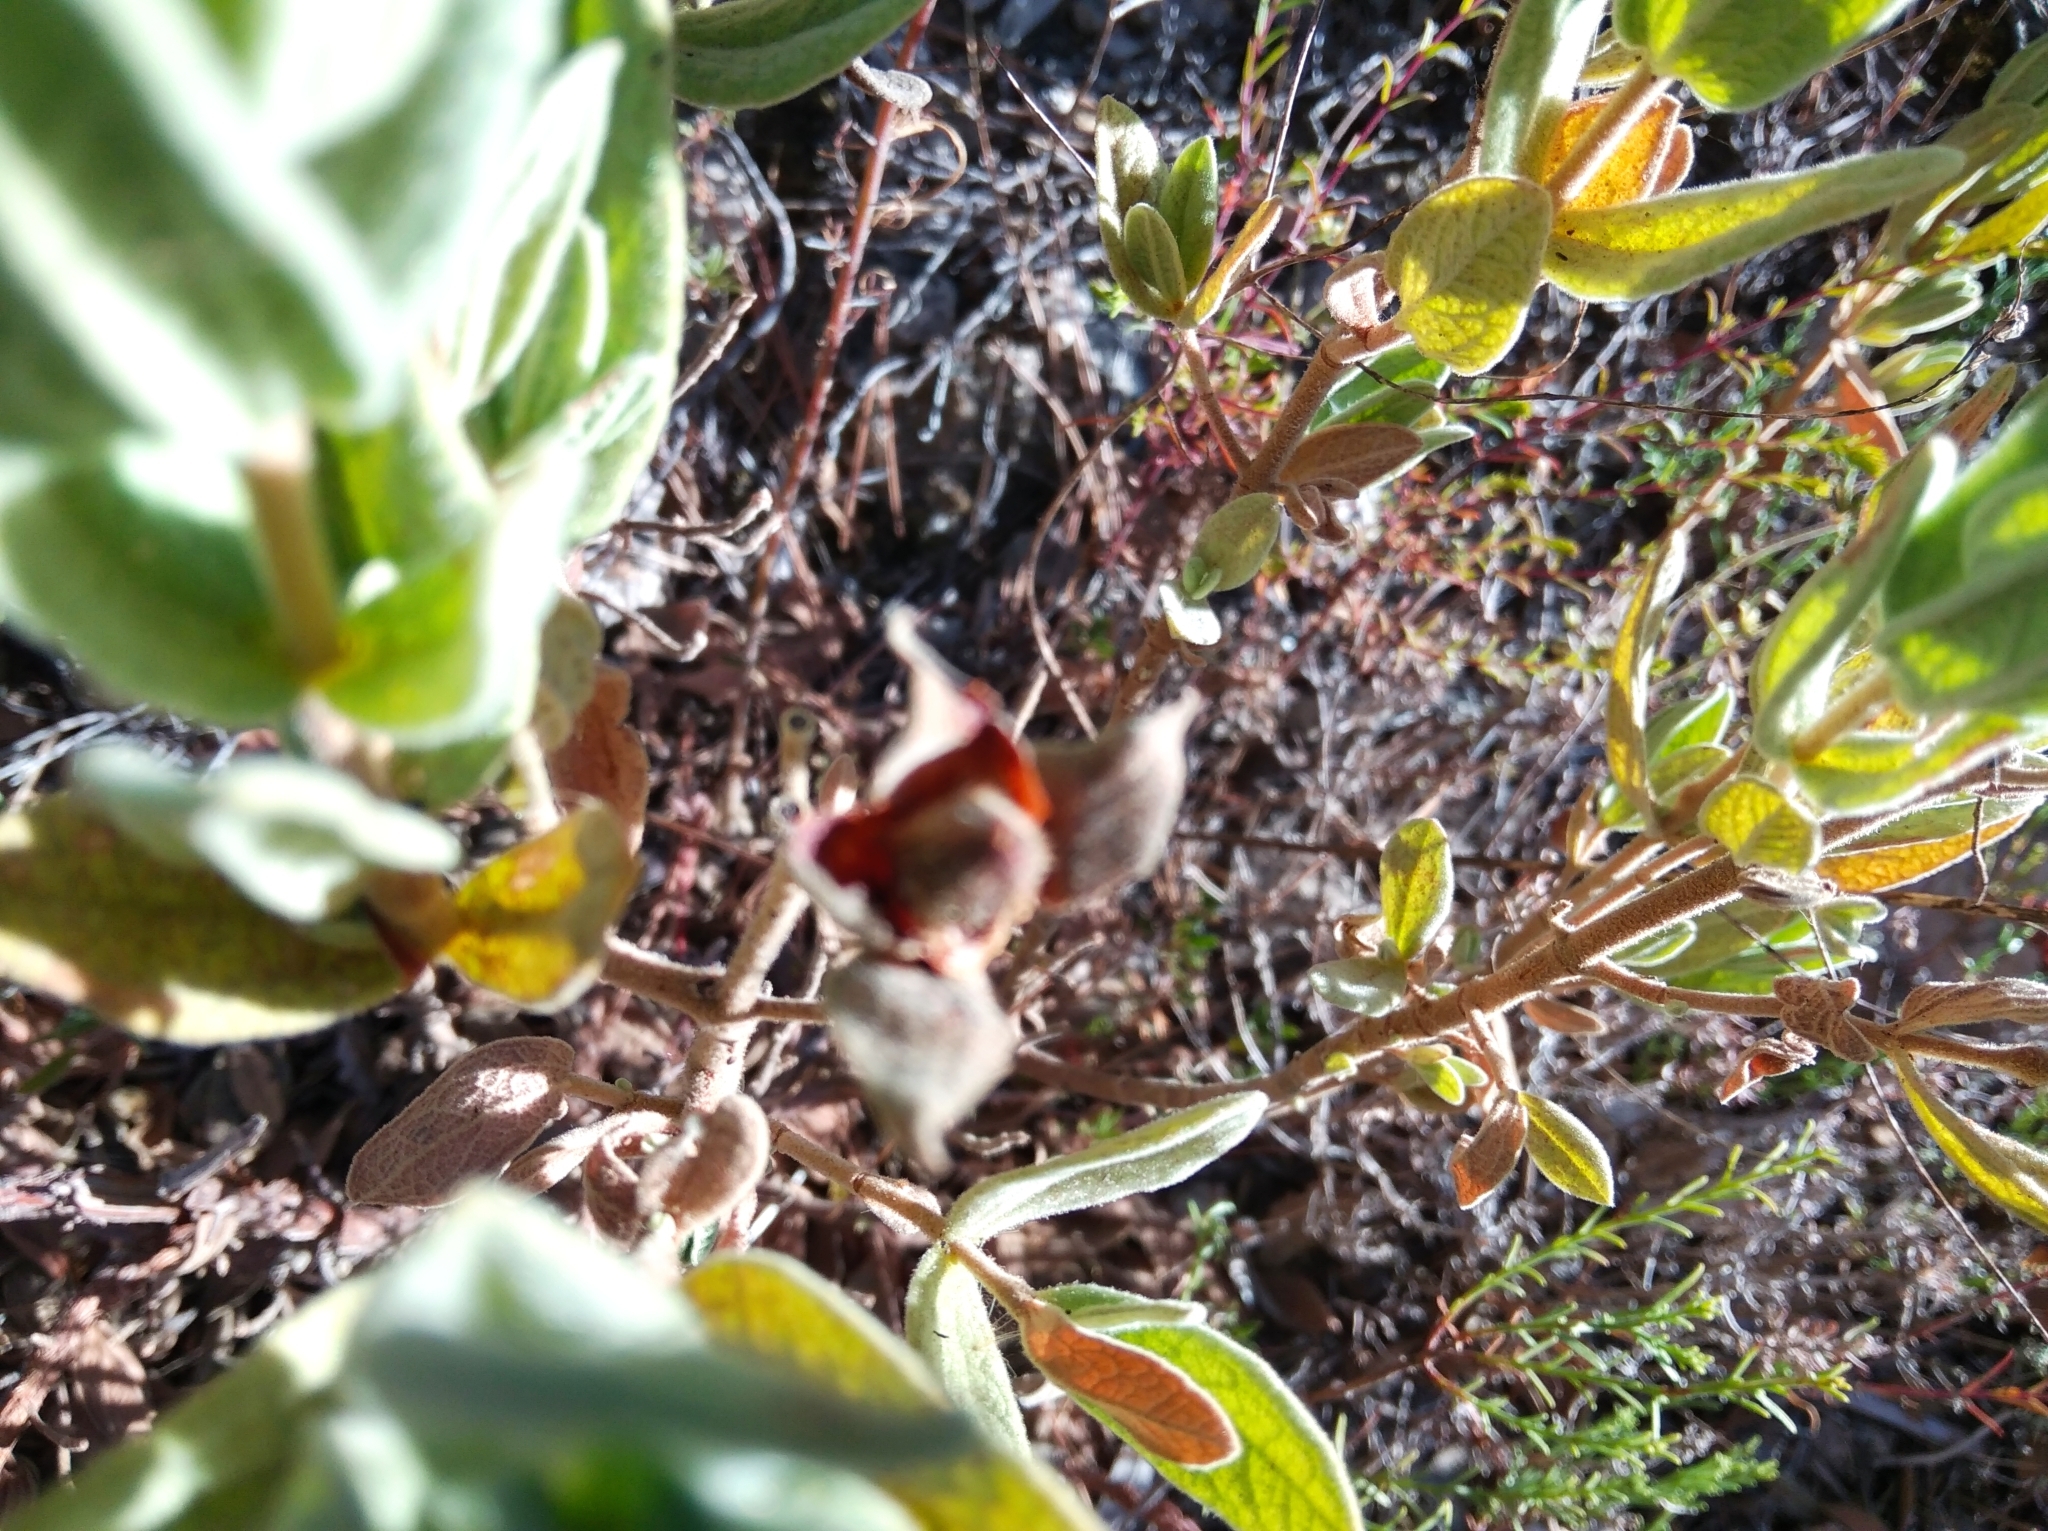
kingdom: Plantae
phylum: Tracheophyta
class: Magnoliopsida
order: Malvales
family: Cistaceae
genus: Cistus
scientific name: Cistus albidus
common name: White-leaf rock-rose
